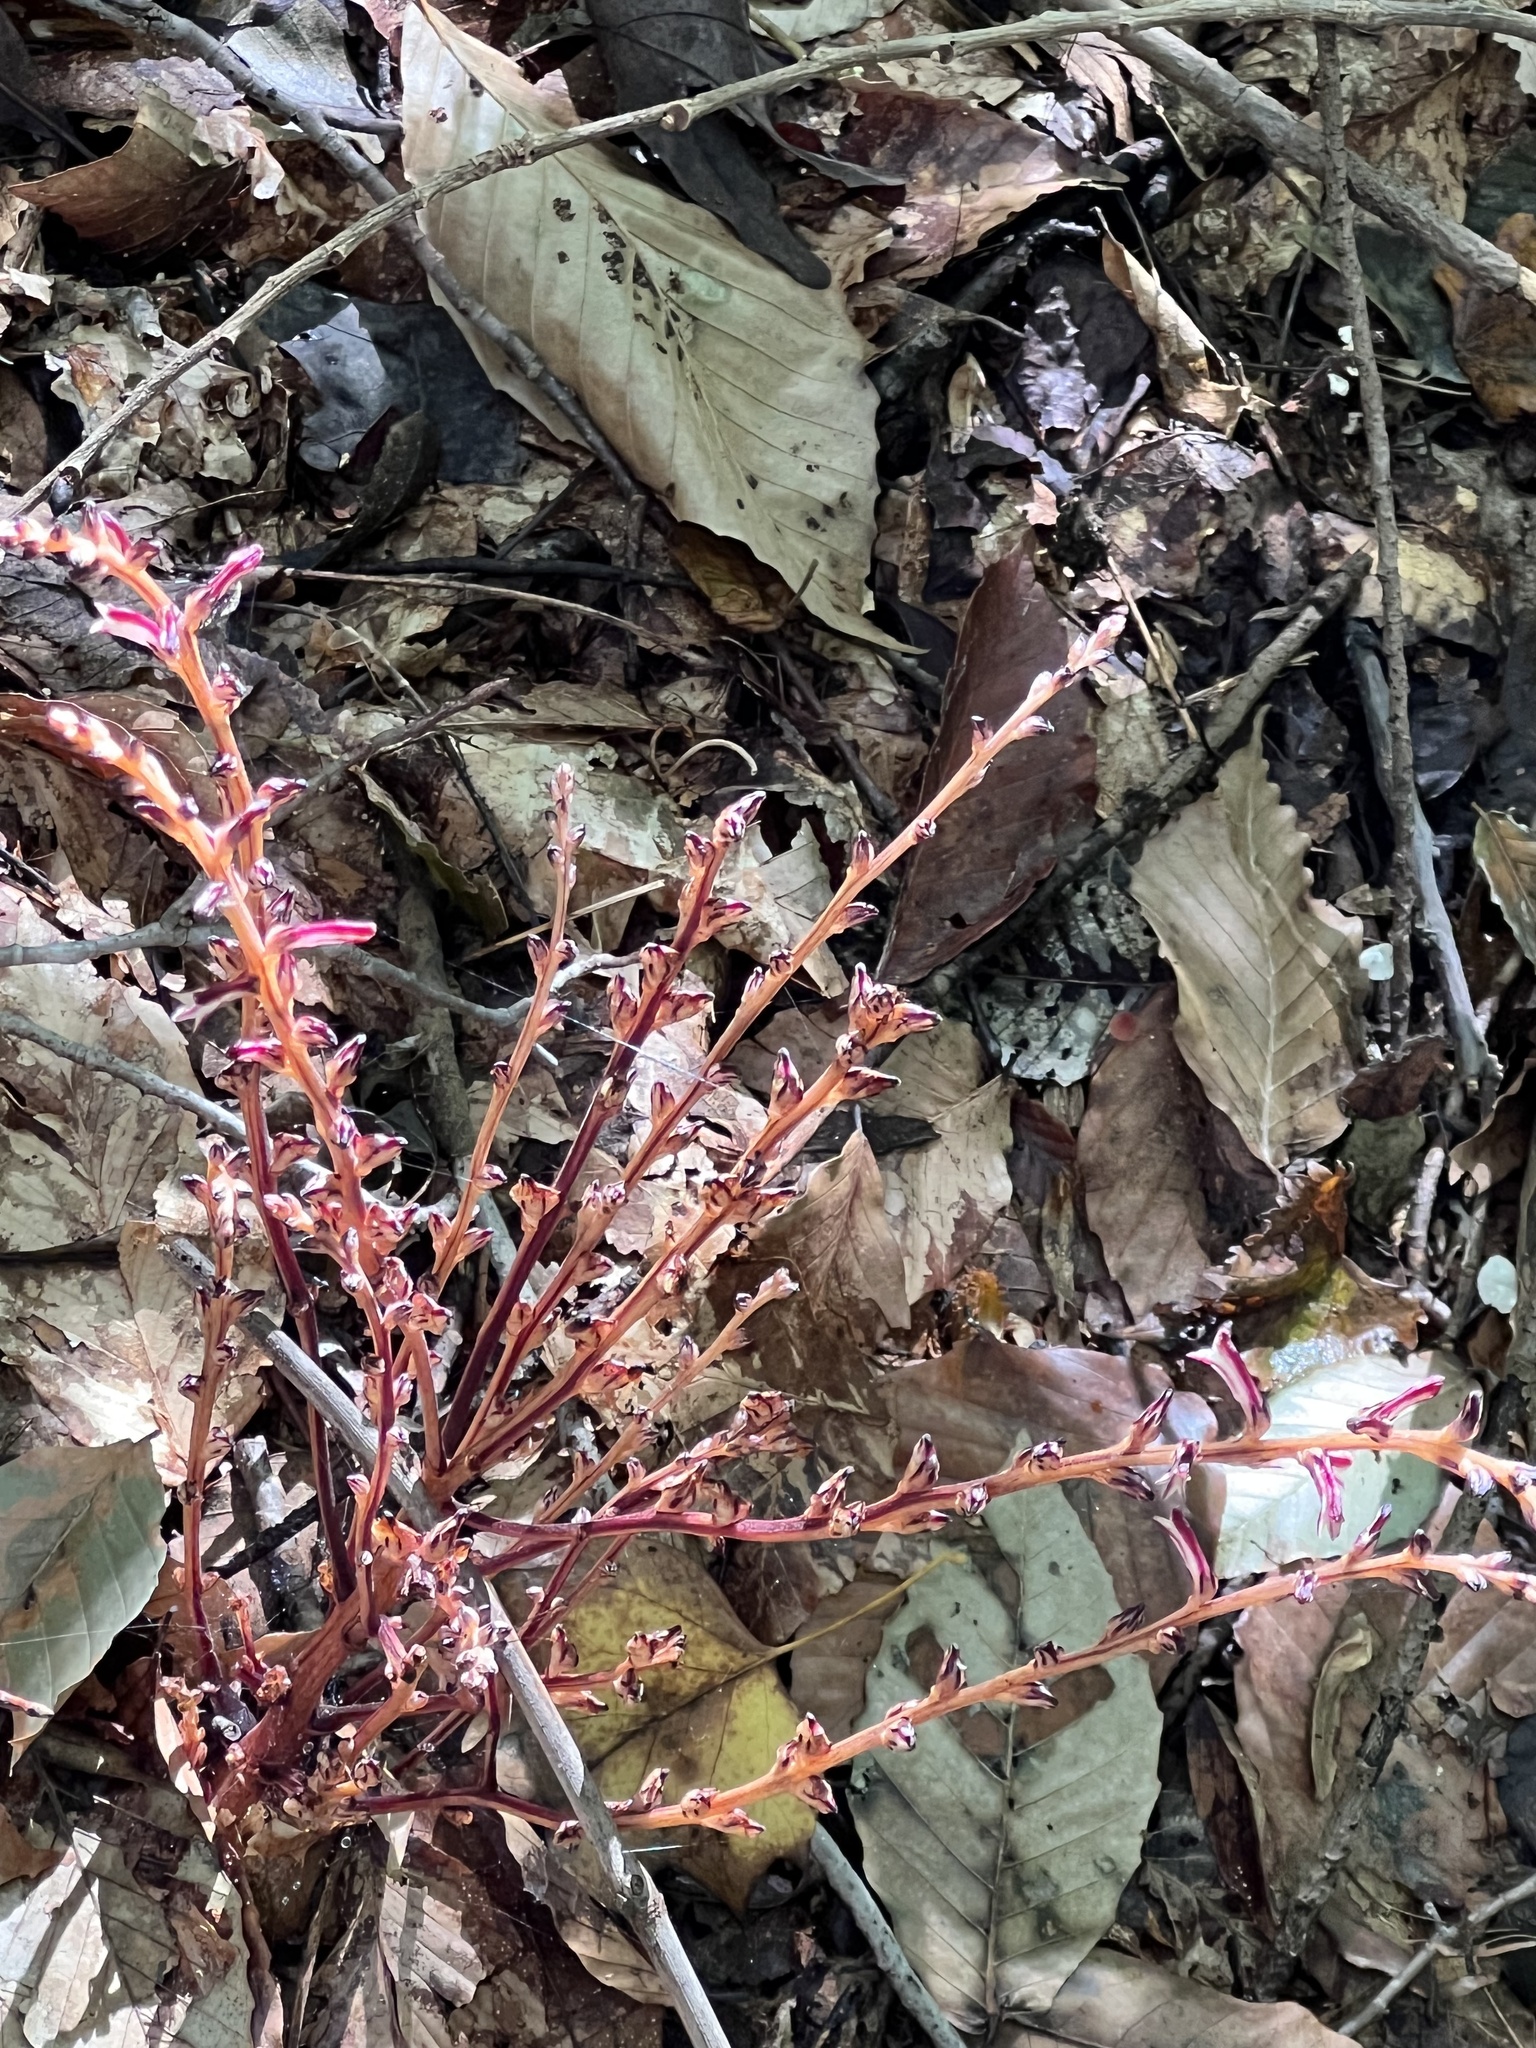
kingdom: Plantae
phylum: Tracheophyta
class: Magnoliopsida
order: Lamiales
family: Orobanchaceae
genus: Epifagus
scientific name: Epifagus virginiana
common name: Beechdrops
